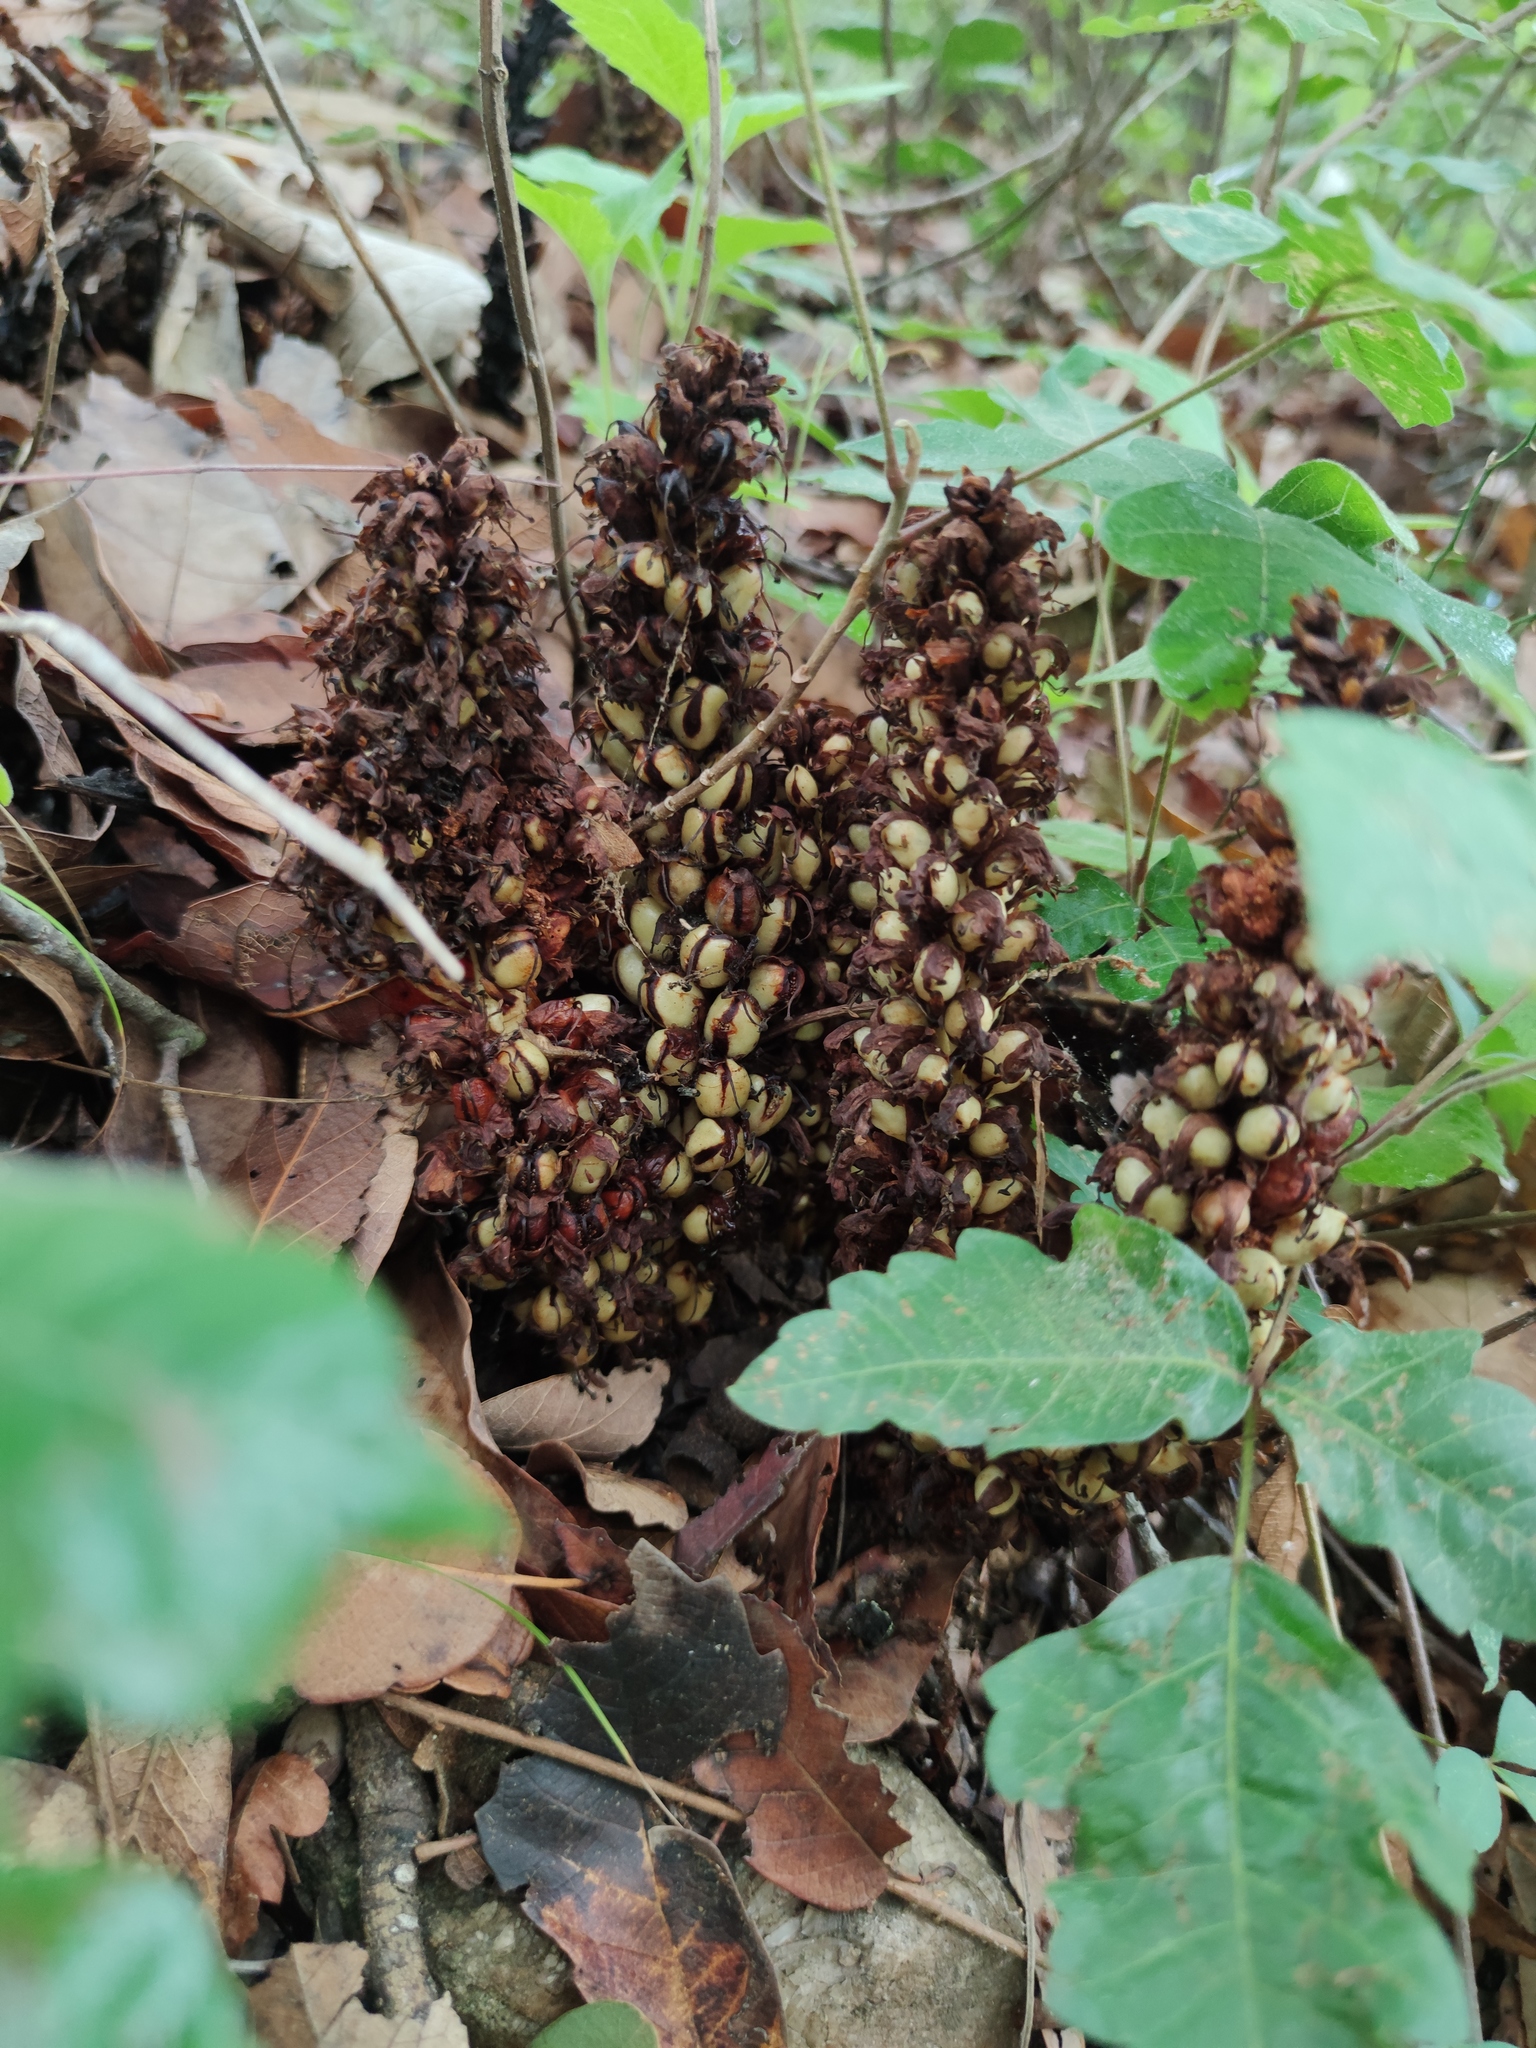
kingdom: Plantae
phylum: Tracheophyta
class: Magnoliopsida
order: Lamiales
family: Orobanchaceae
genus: Conopholis
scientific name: Conopholis alpina
